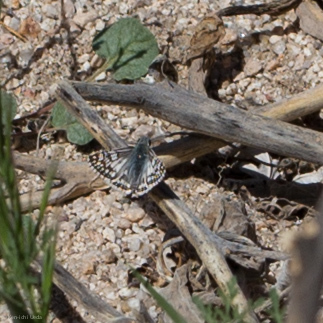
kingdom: Animalia
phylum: Arthropoda
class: Insecta
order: Lepidoptera
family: Hesperiidae
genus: Burnsius
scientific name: Burnsius albezens
